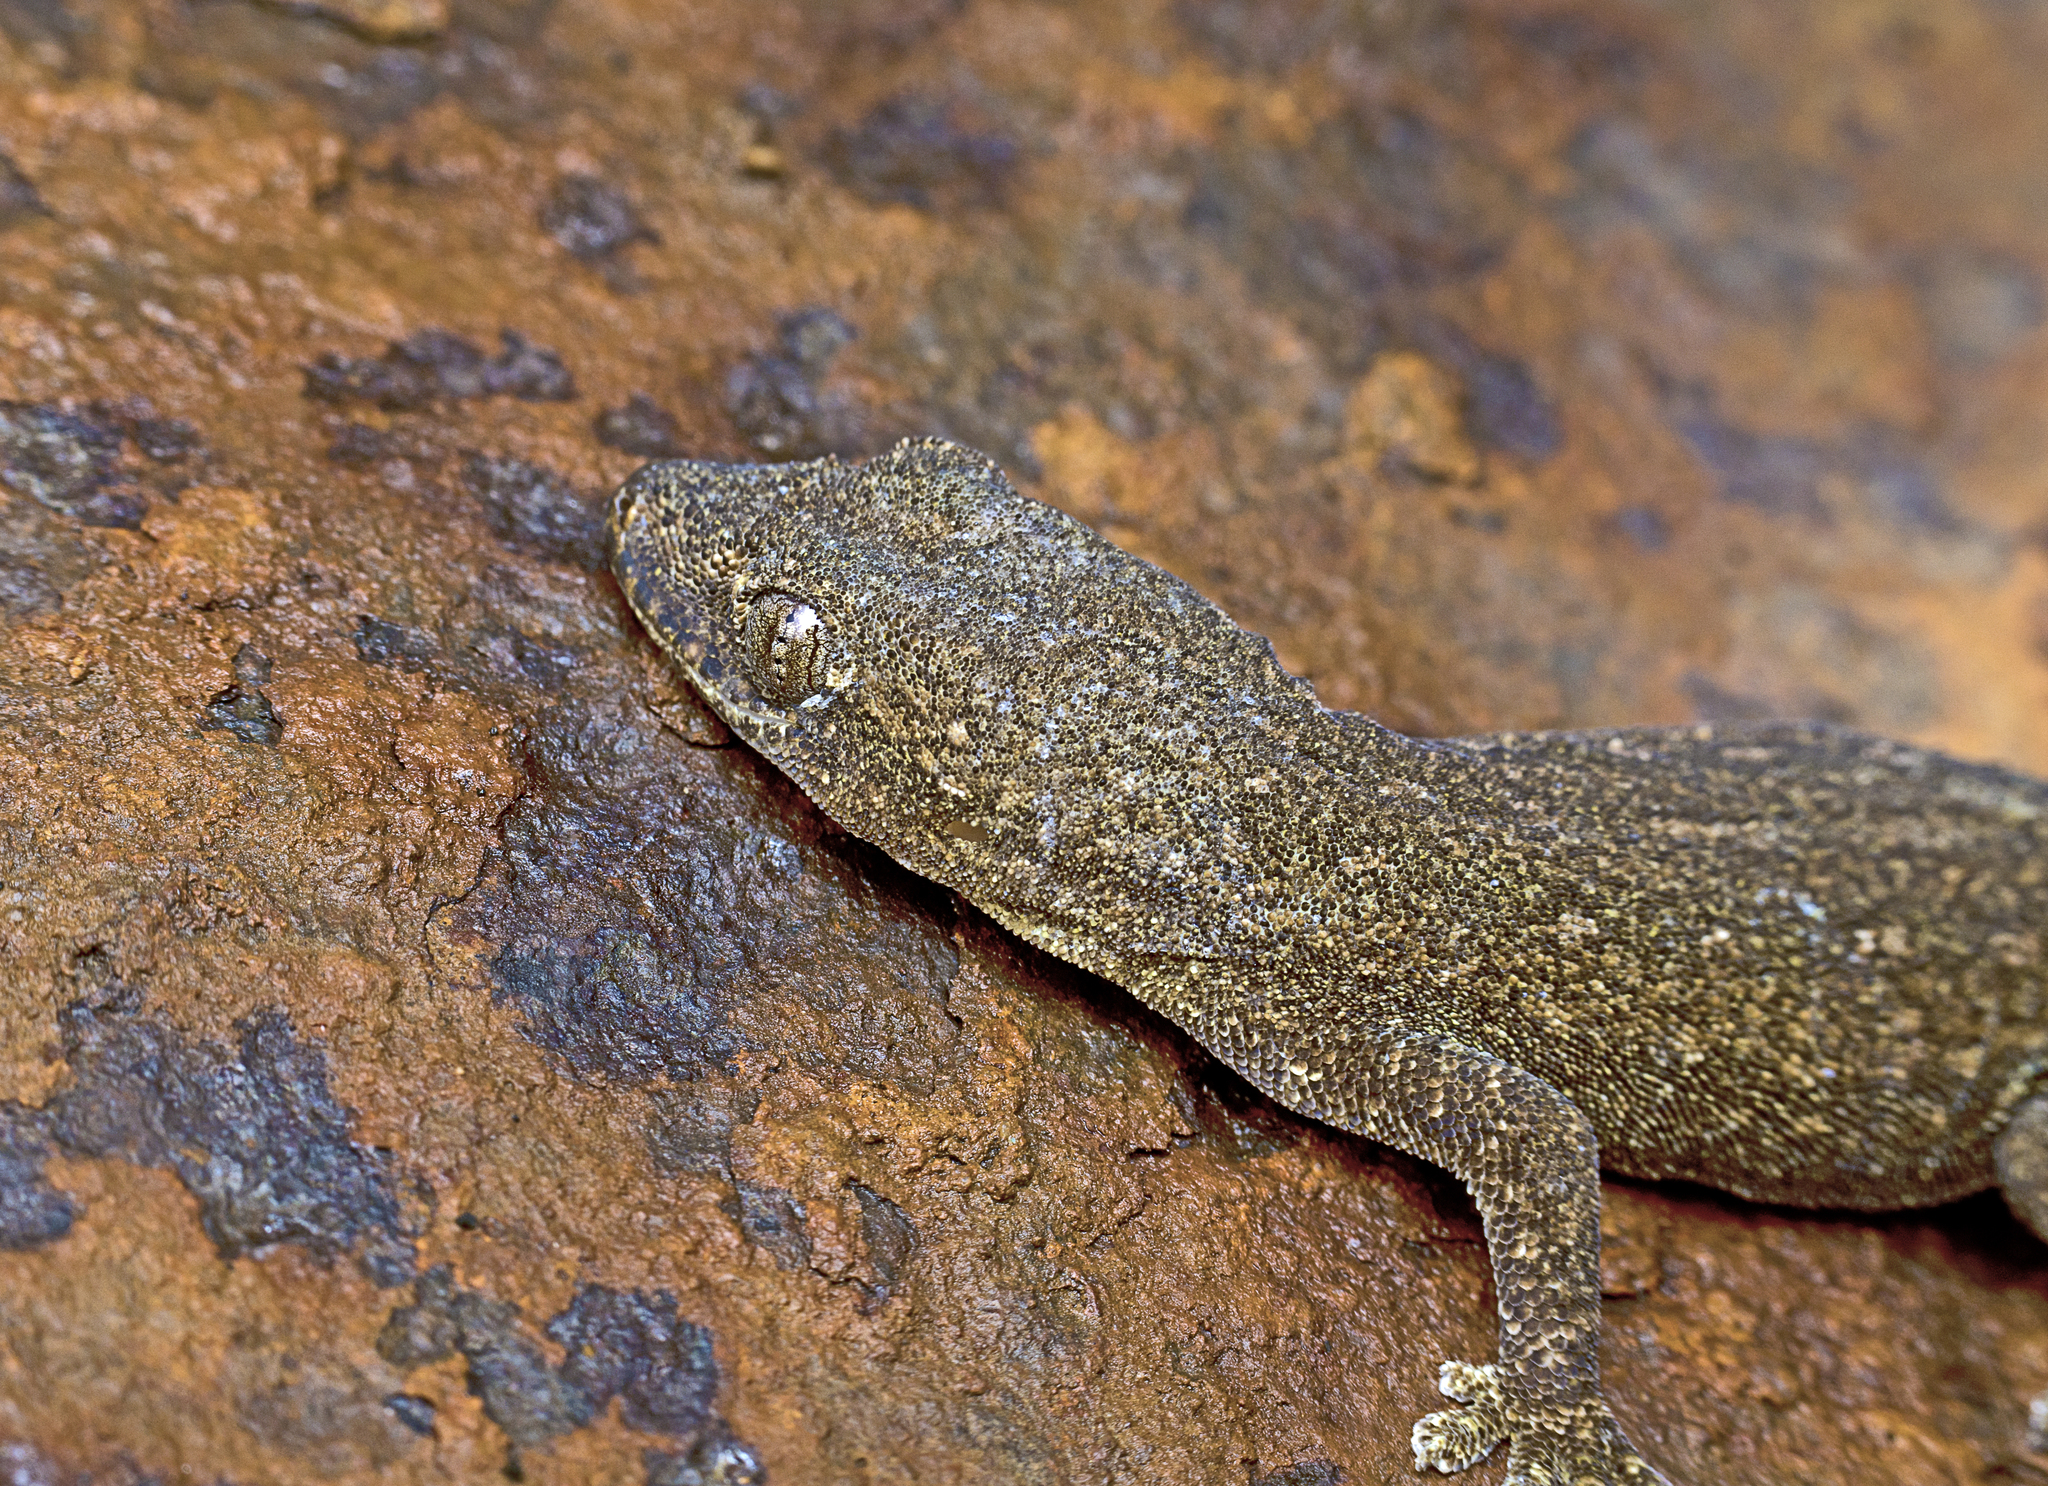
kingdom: Animalia
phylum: Chordata
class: Squamata
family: Gekkonidae
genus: Hemidactylus
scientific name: Hemidactylus frenatus
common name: Common house gecko
